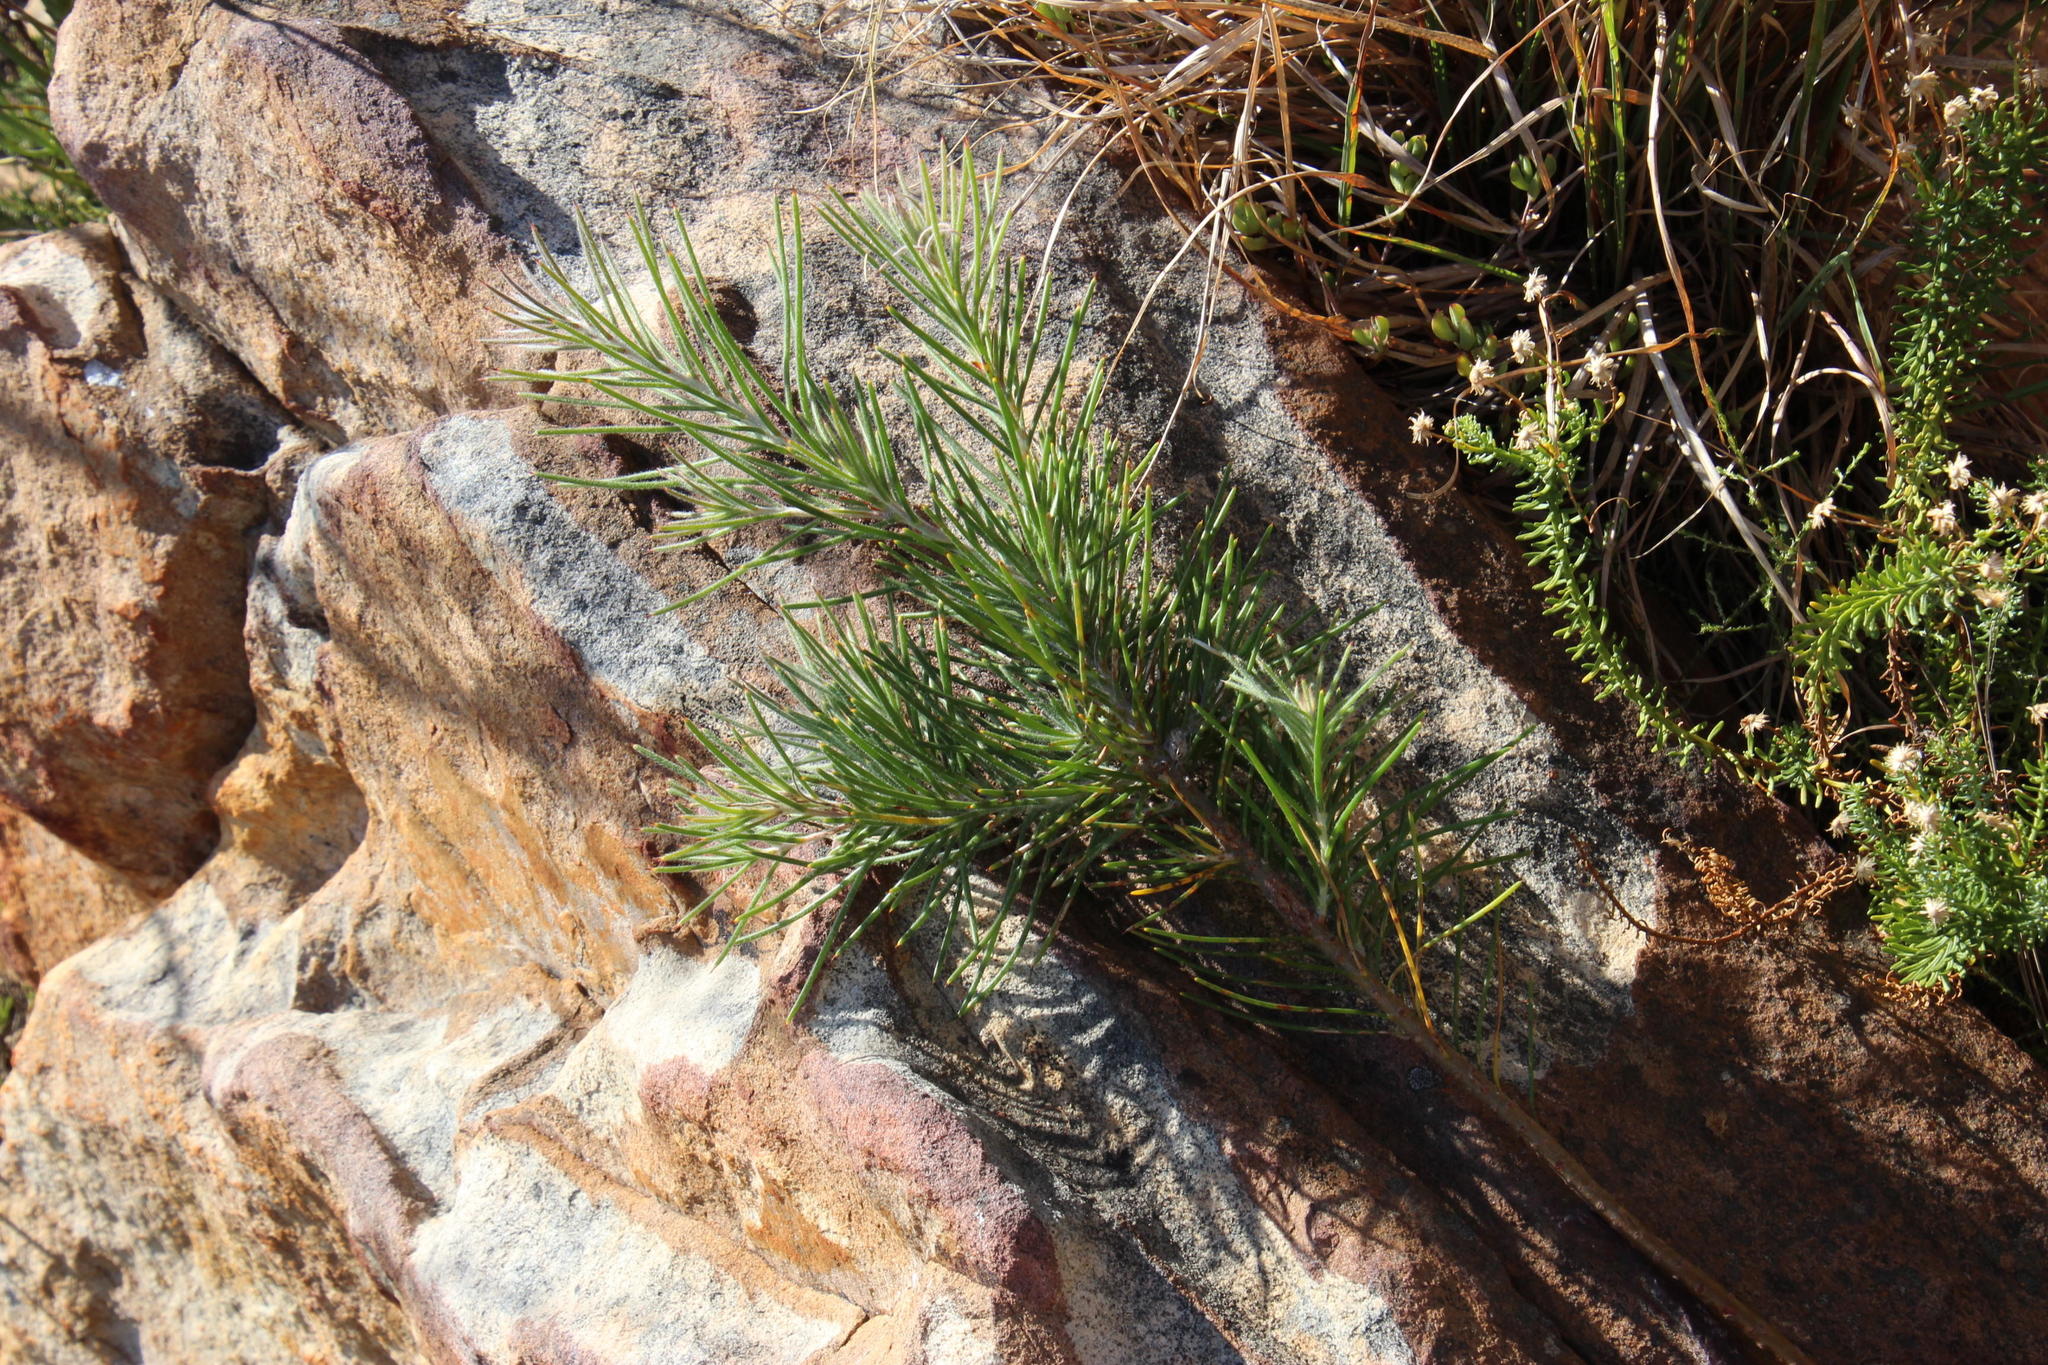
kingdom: Plantae
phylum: Tracheophyta
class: Magnoliopsida
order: Proteales
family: Proteaceae
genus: Hakea
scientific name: Hakea gibbosa
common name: Rock hakea
